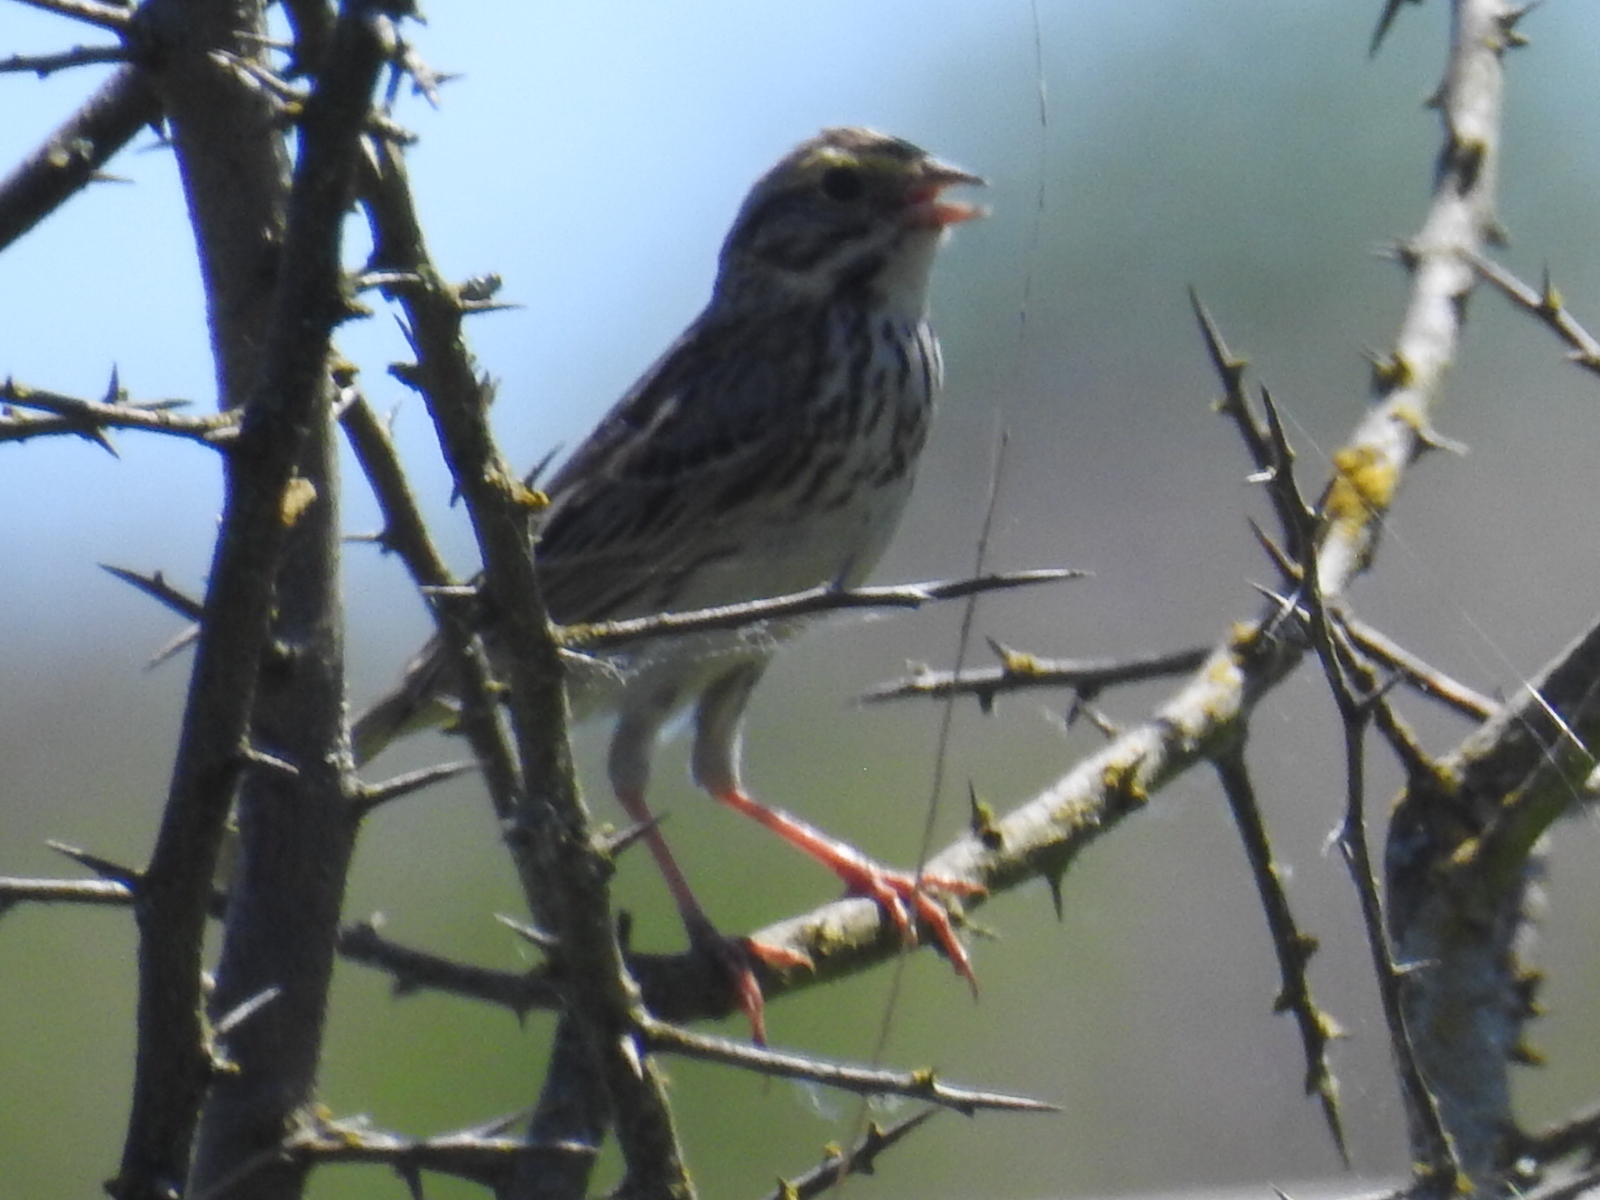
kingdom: Animalia
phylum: Chordata
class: Aves
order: Passeriformes
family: Passerellidae
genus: Passerculus
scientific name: Passerculus sandwichensis
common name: Savannah sparrow
